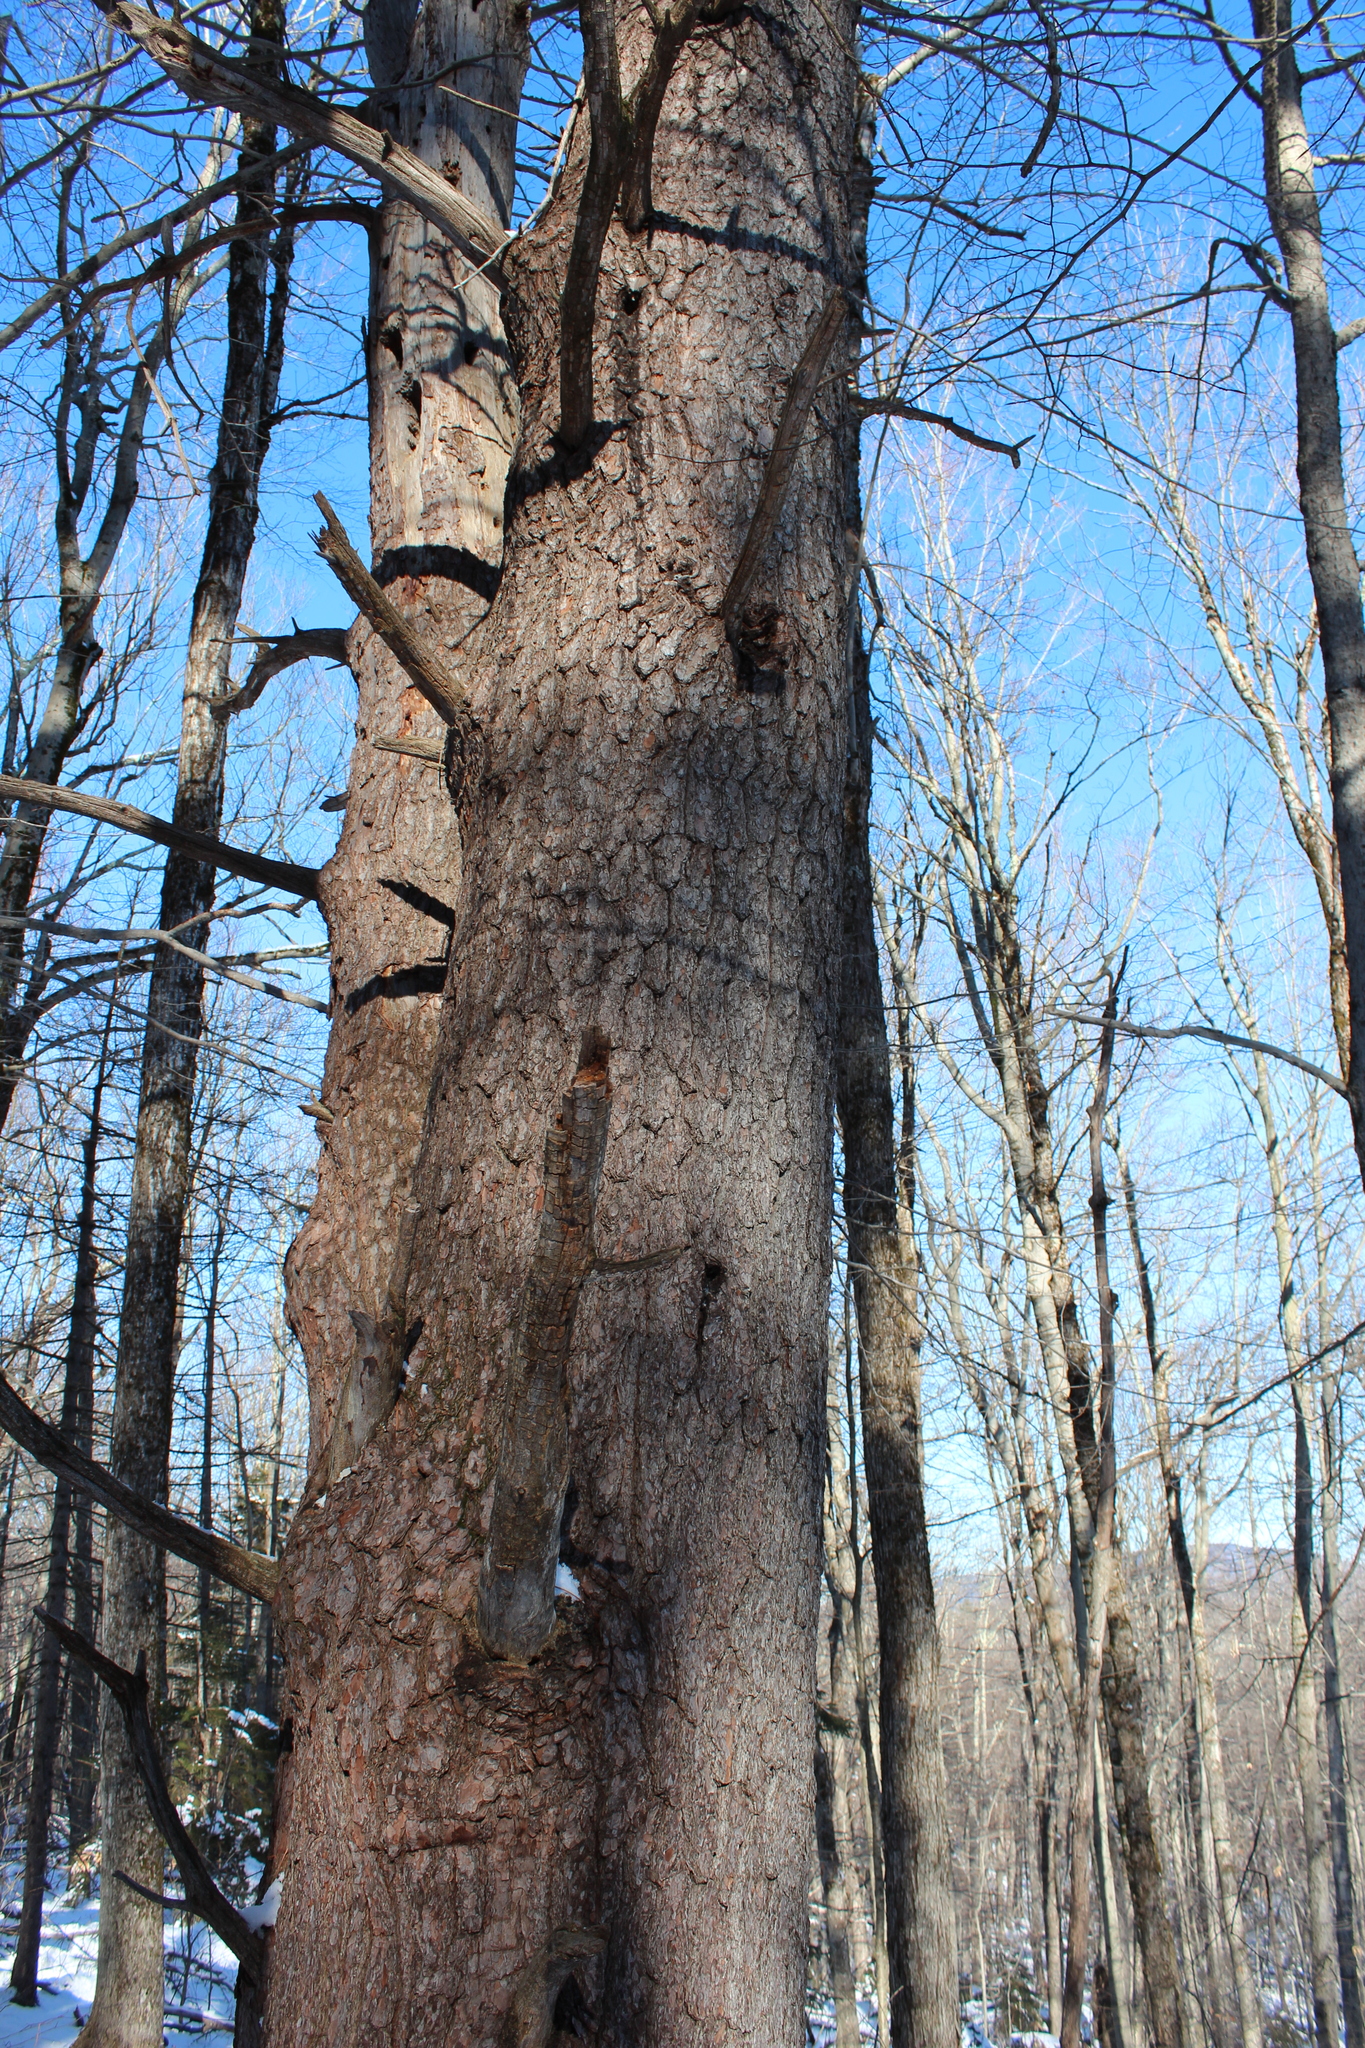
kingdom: Plantae
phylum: Tracheophyta
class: Pinopsida
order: Pinales
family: Pinaceae
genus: Pinus
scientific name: Pinus strobus
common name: Weymouth pine
